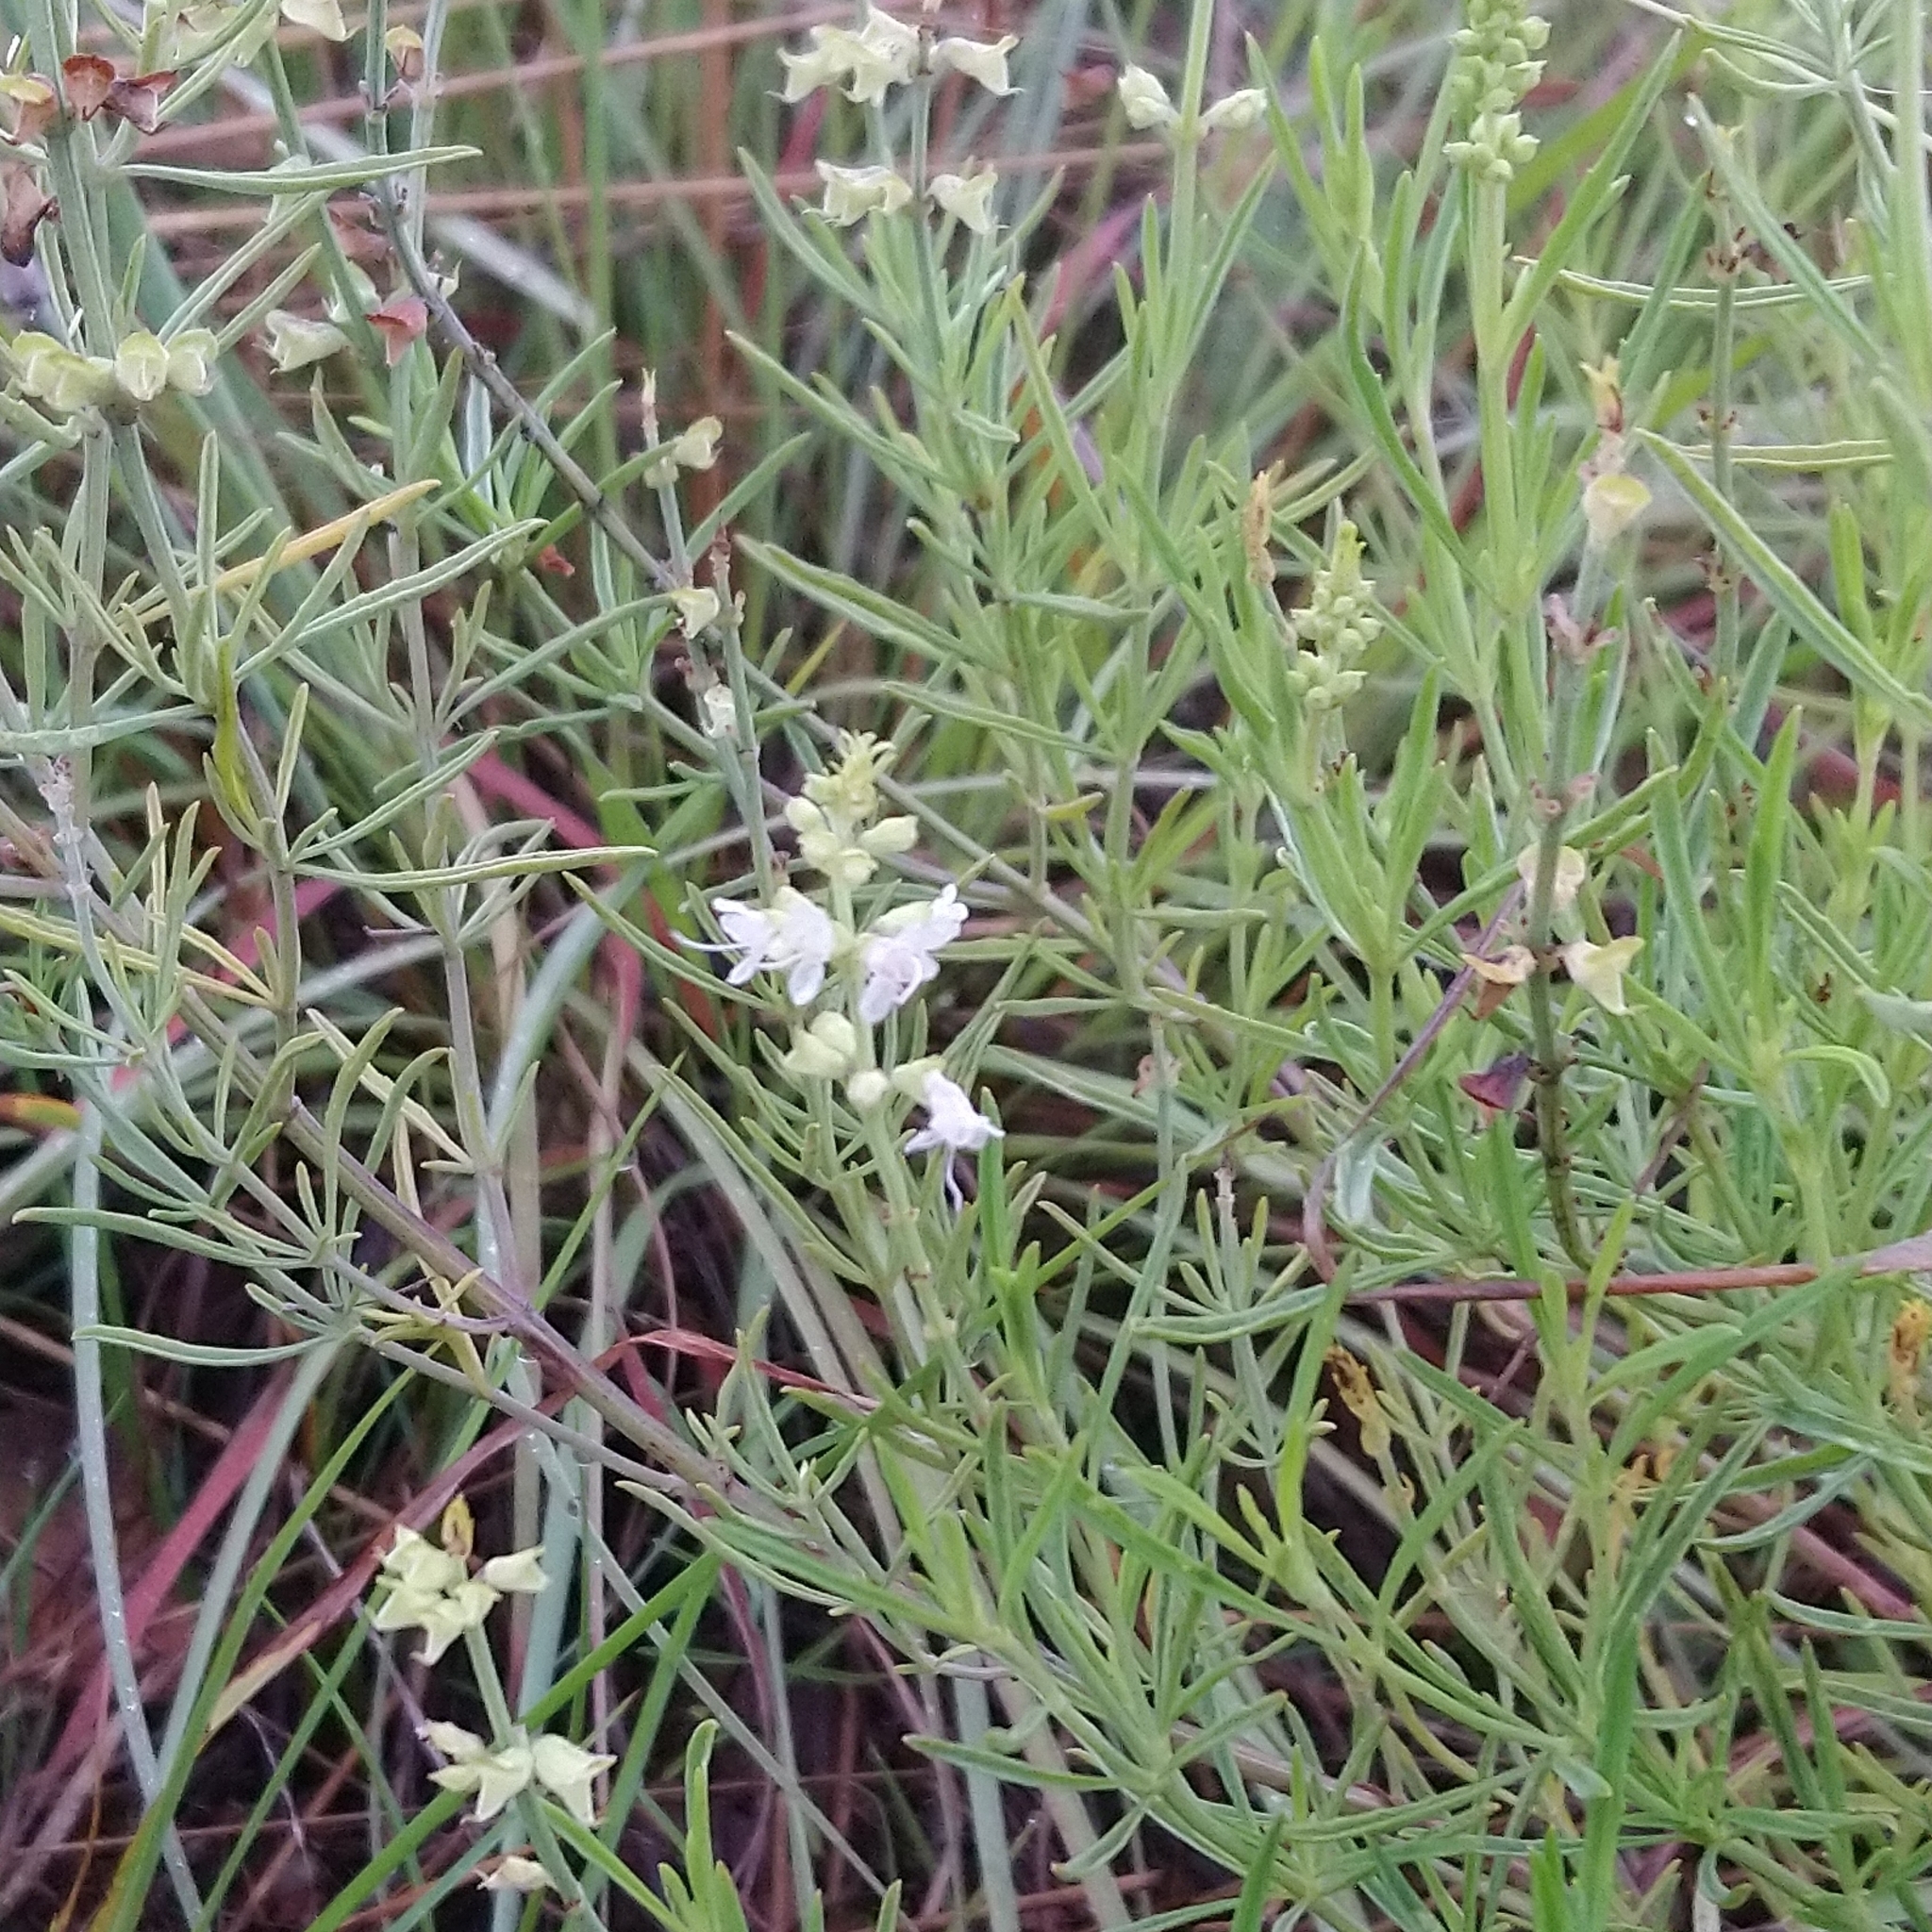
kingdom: Plantae
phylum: Tracheophyta
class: Magnoliopsida
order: Lamiales
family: Lamiaceae
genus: Ocimum
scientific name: Ocimum angustifolium
